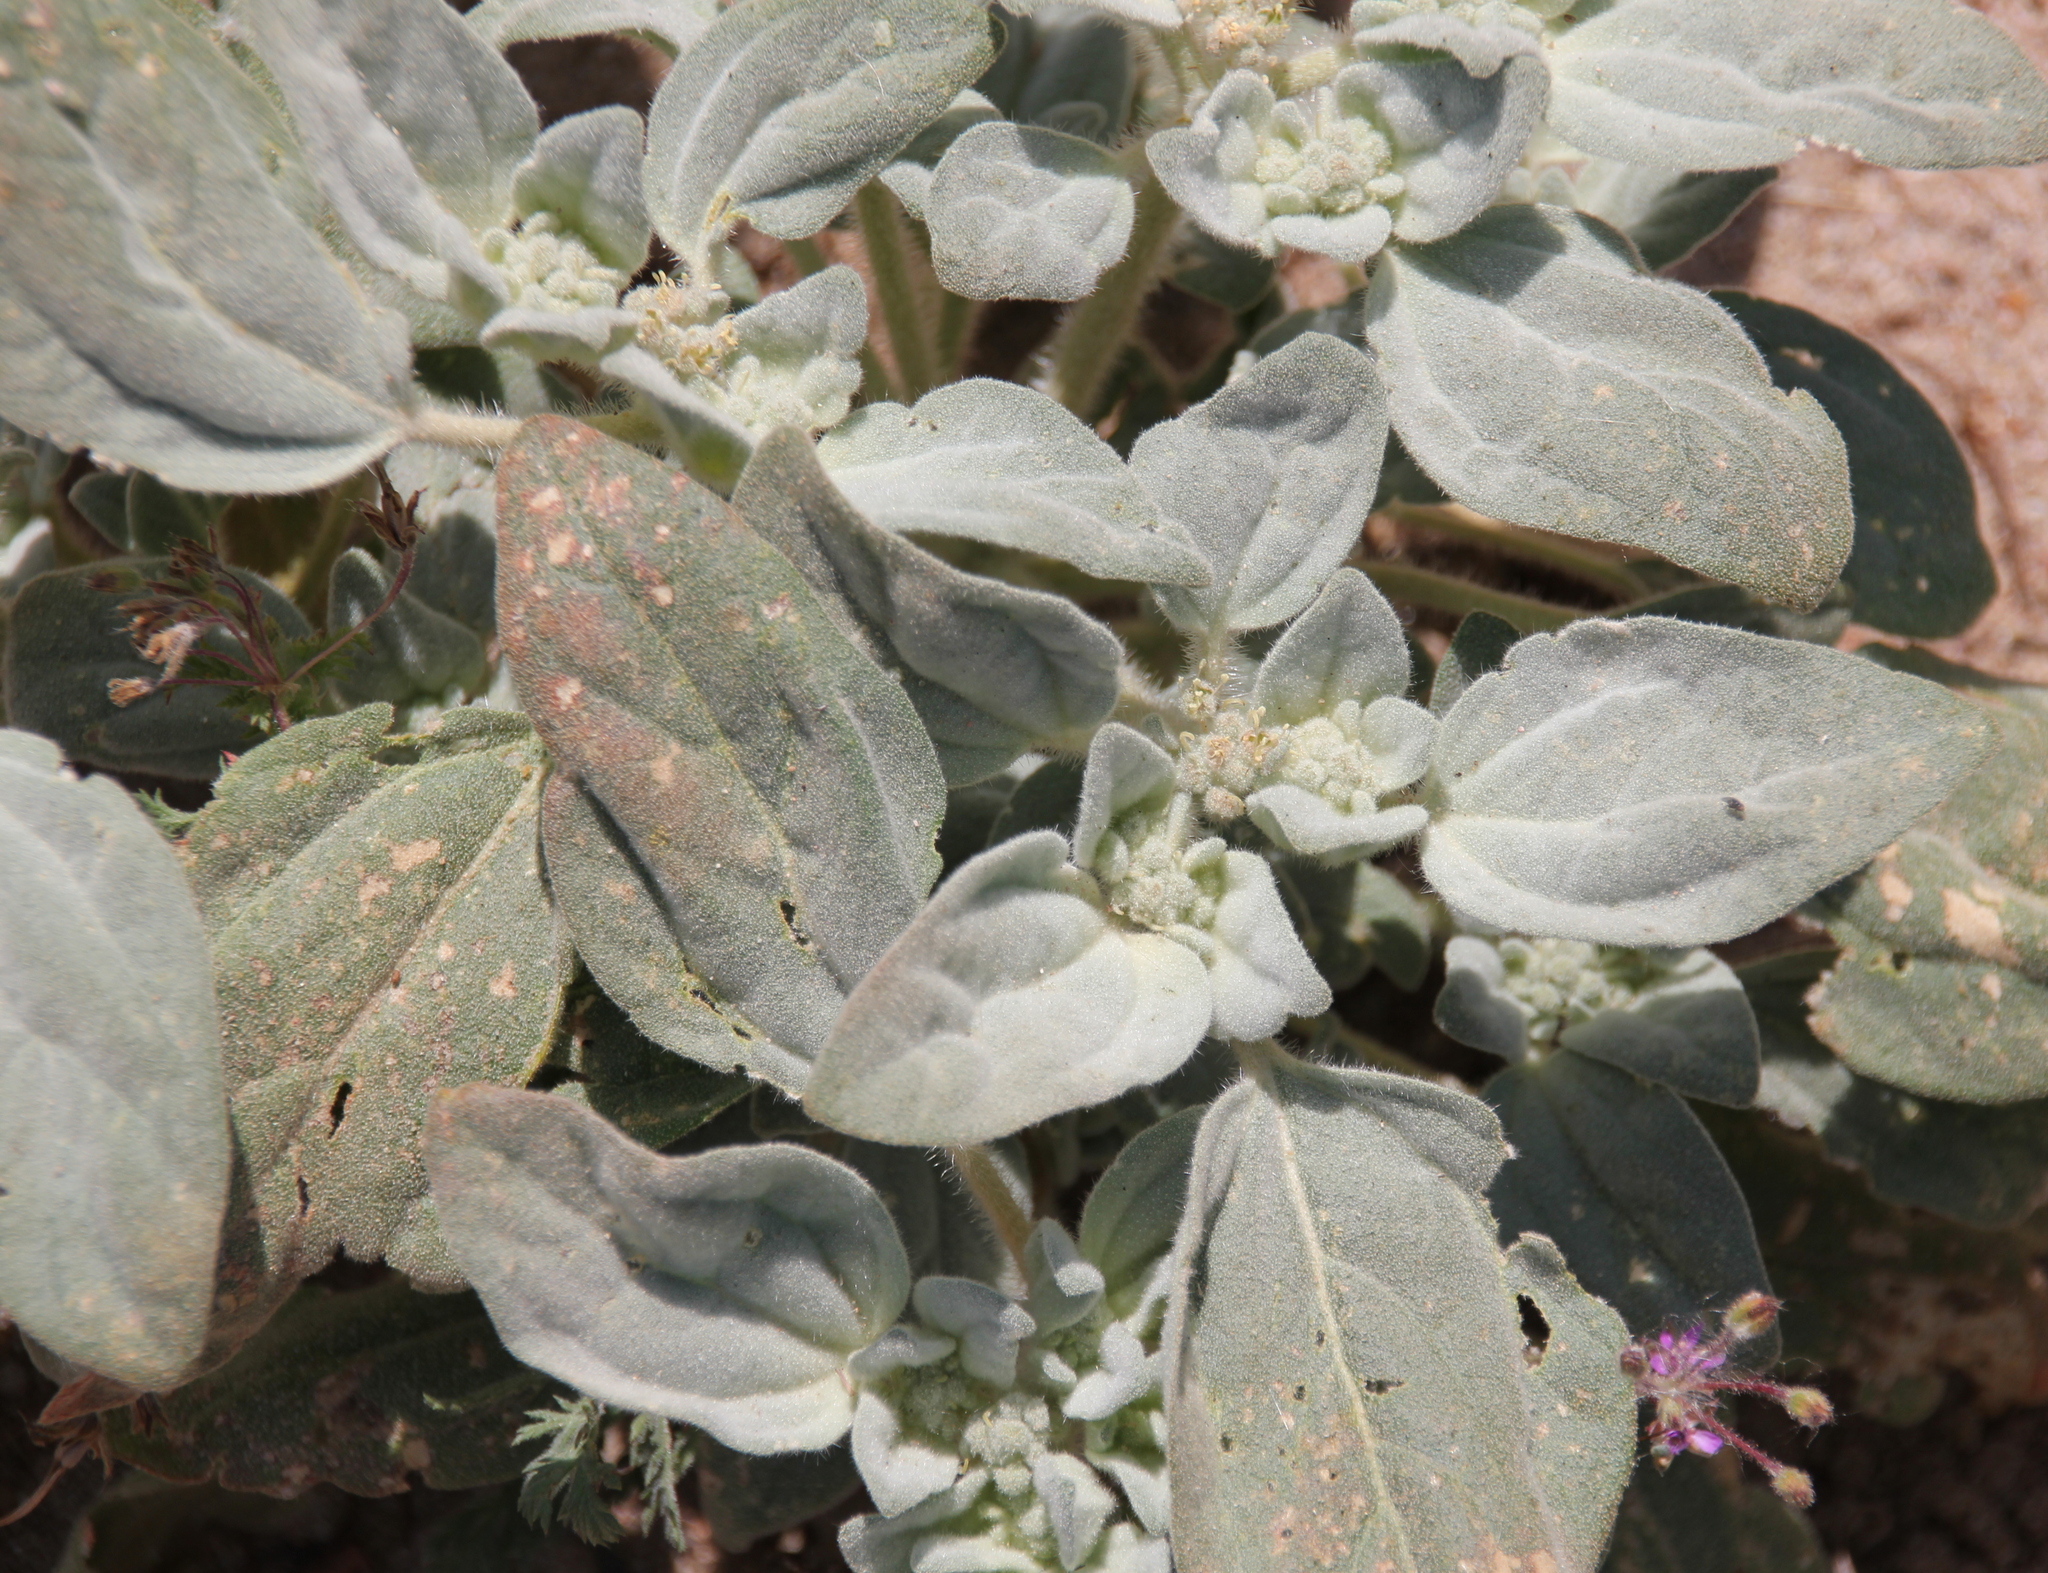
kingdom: Plantae
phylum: Tracheophyta
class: Magnoliopsida
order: Malpighiales
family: Euphorbiaceae
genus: Croton
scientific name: Croton setiger
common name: Dove weed
